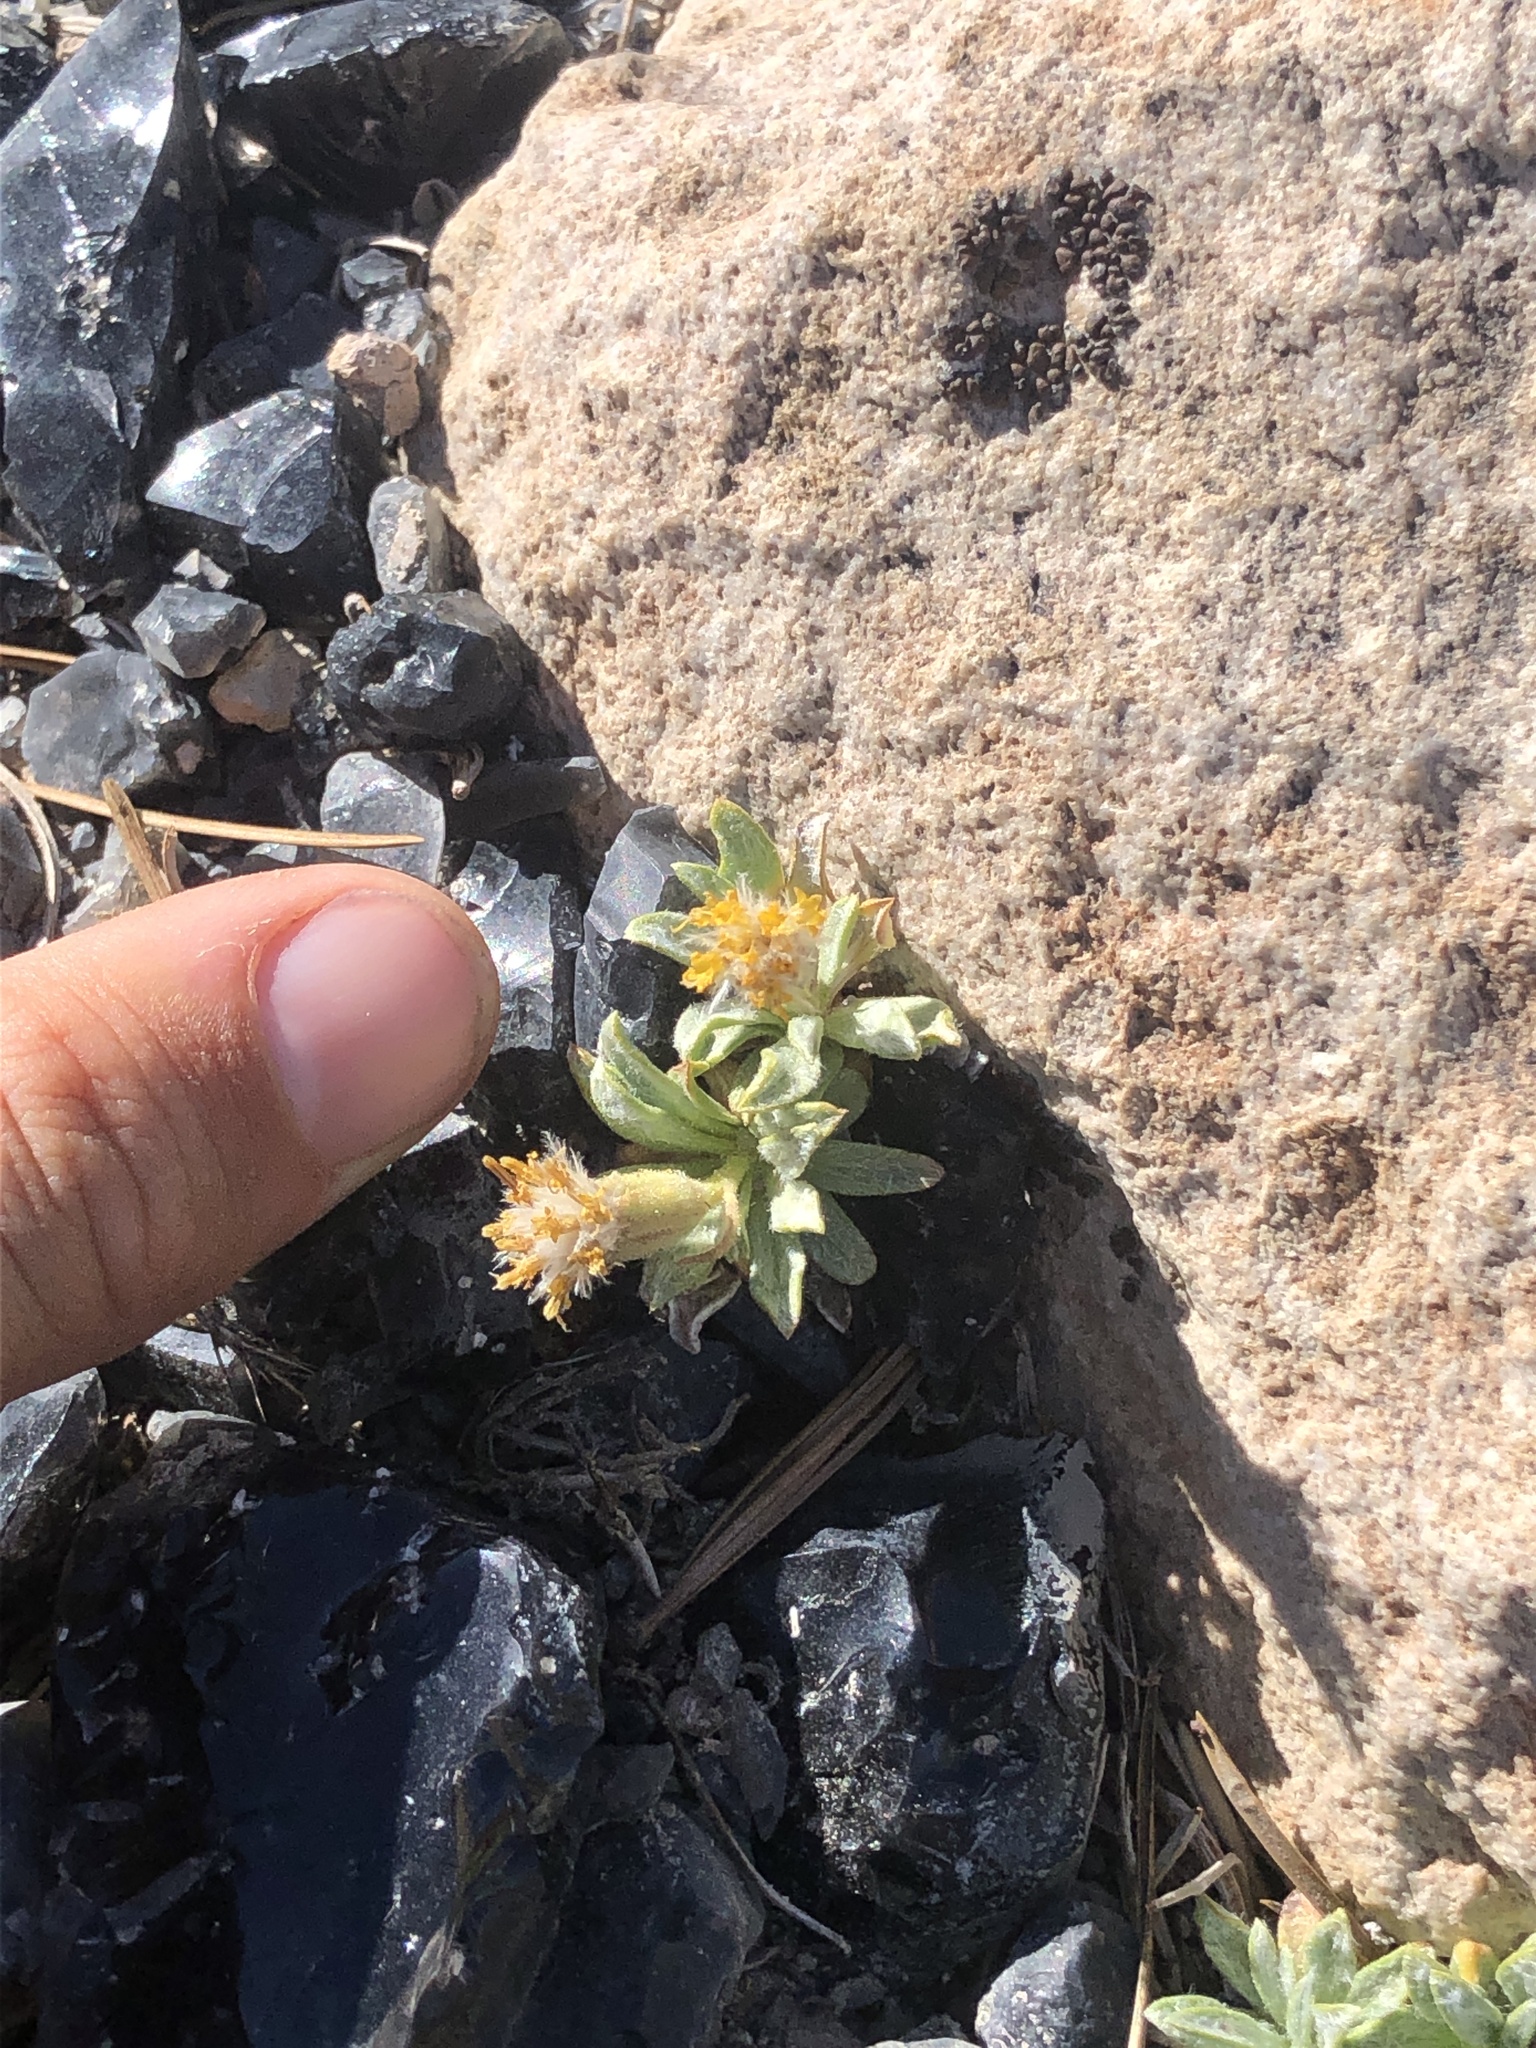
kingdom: Plantae
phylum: Tracheophyta
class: Magnoliopsida
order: Asterales
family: Asteraceae
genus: Raillardella
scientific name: Raillardella argentea
